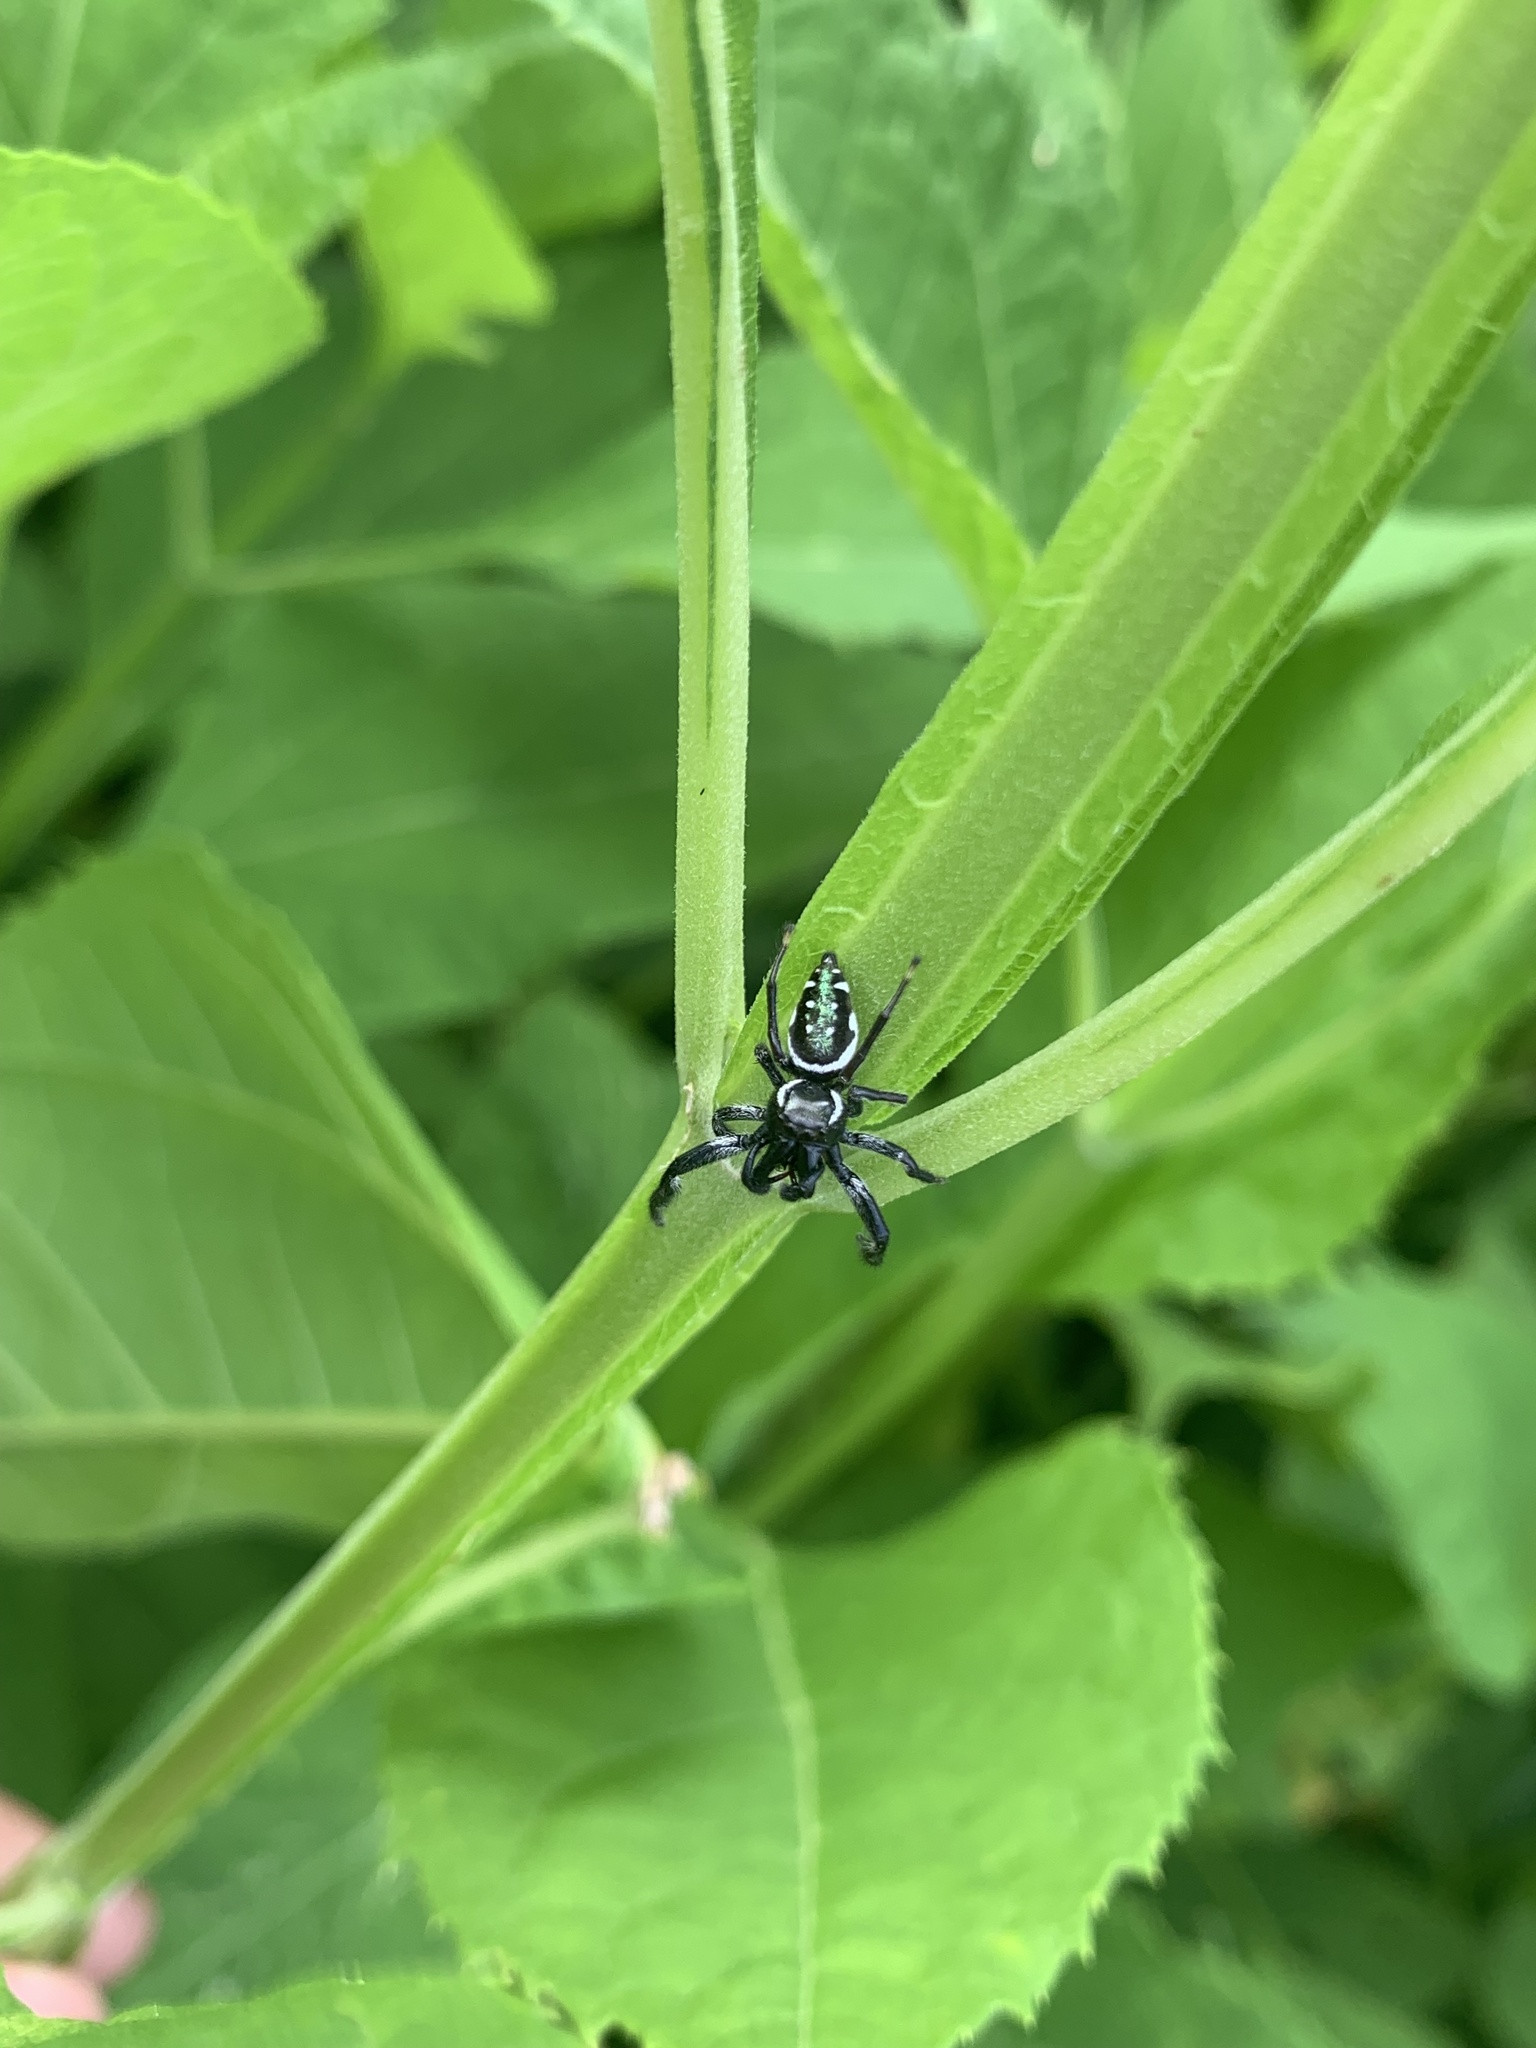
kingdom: Animalia
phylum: Arthropoda
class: Arachnida
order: Araneae
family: Salticidae
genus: Paraphidippus
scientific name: Paraphidippus aurantius
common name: Jumping spiders
